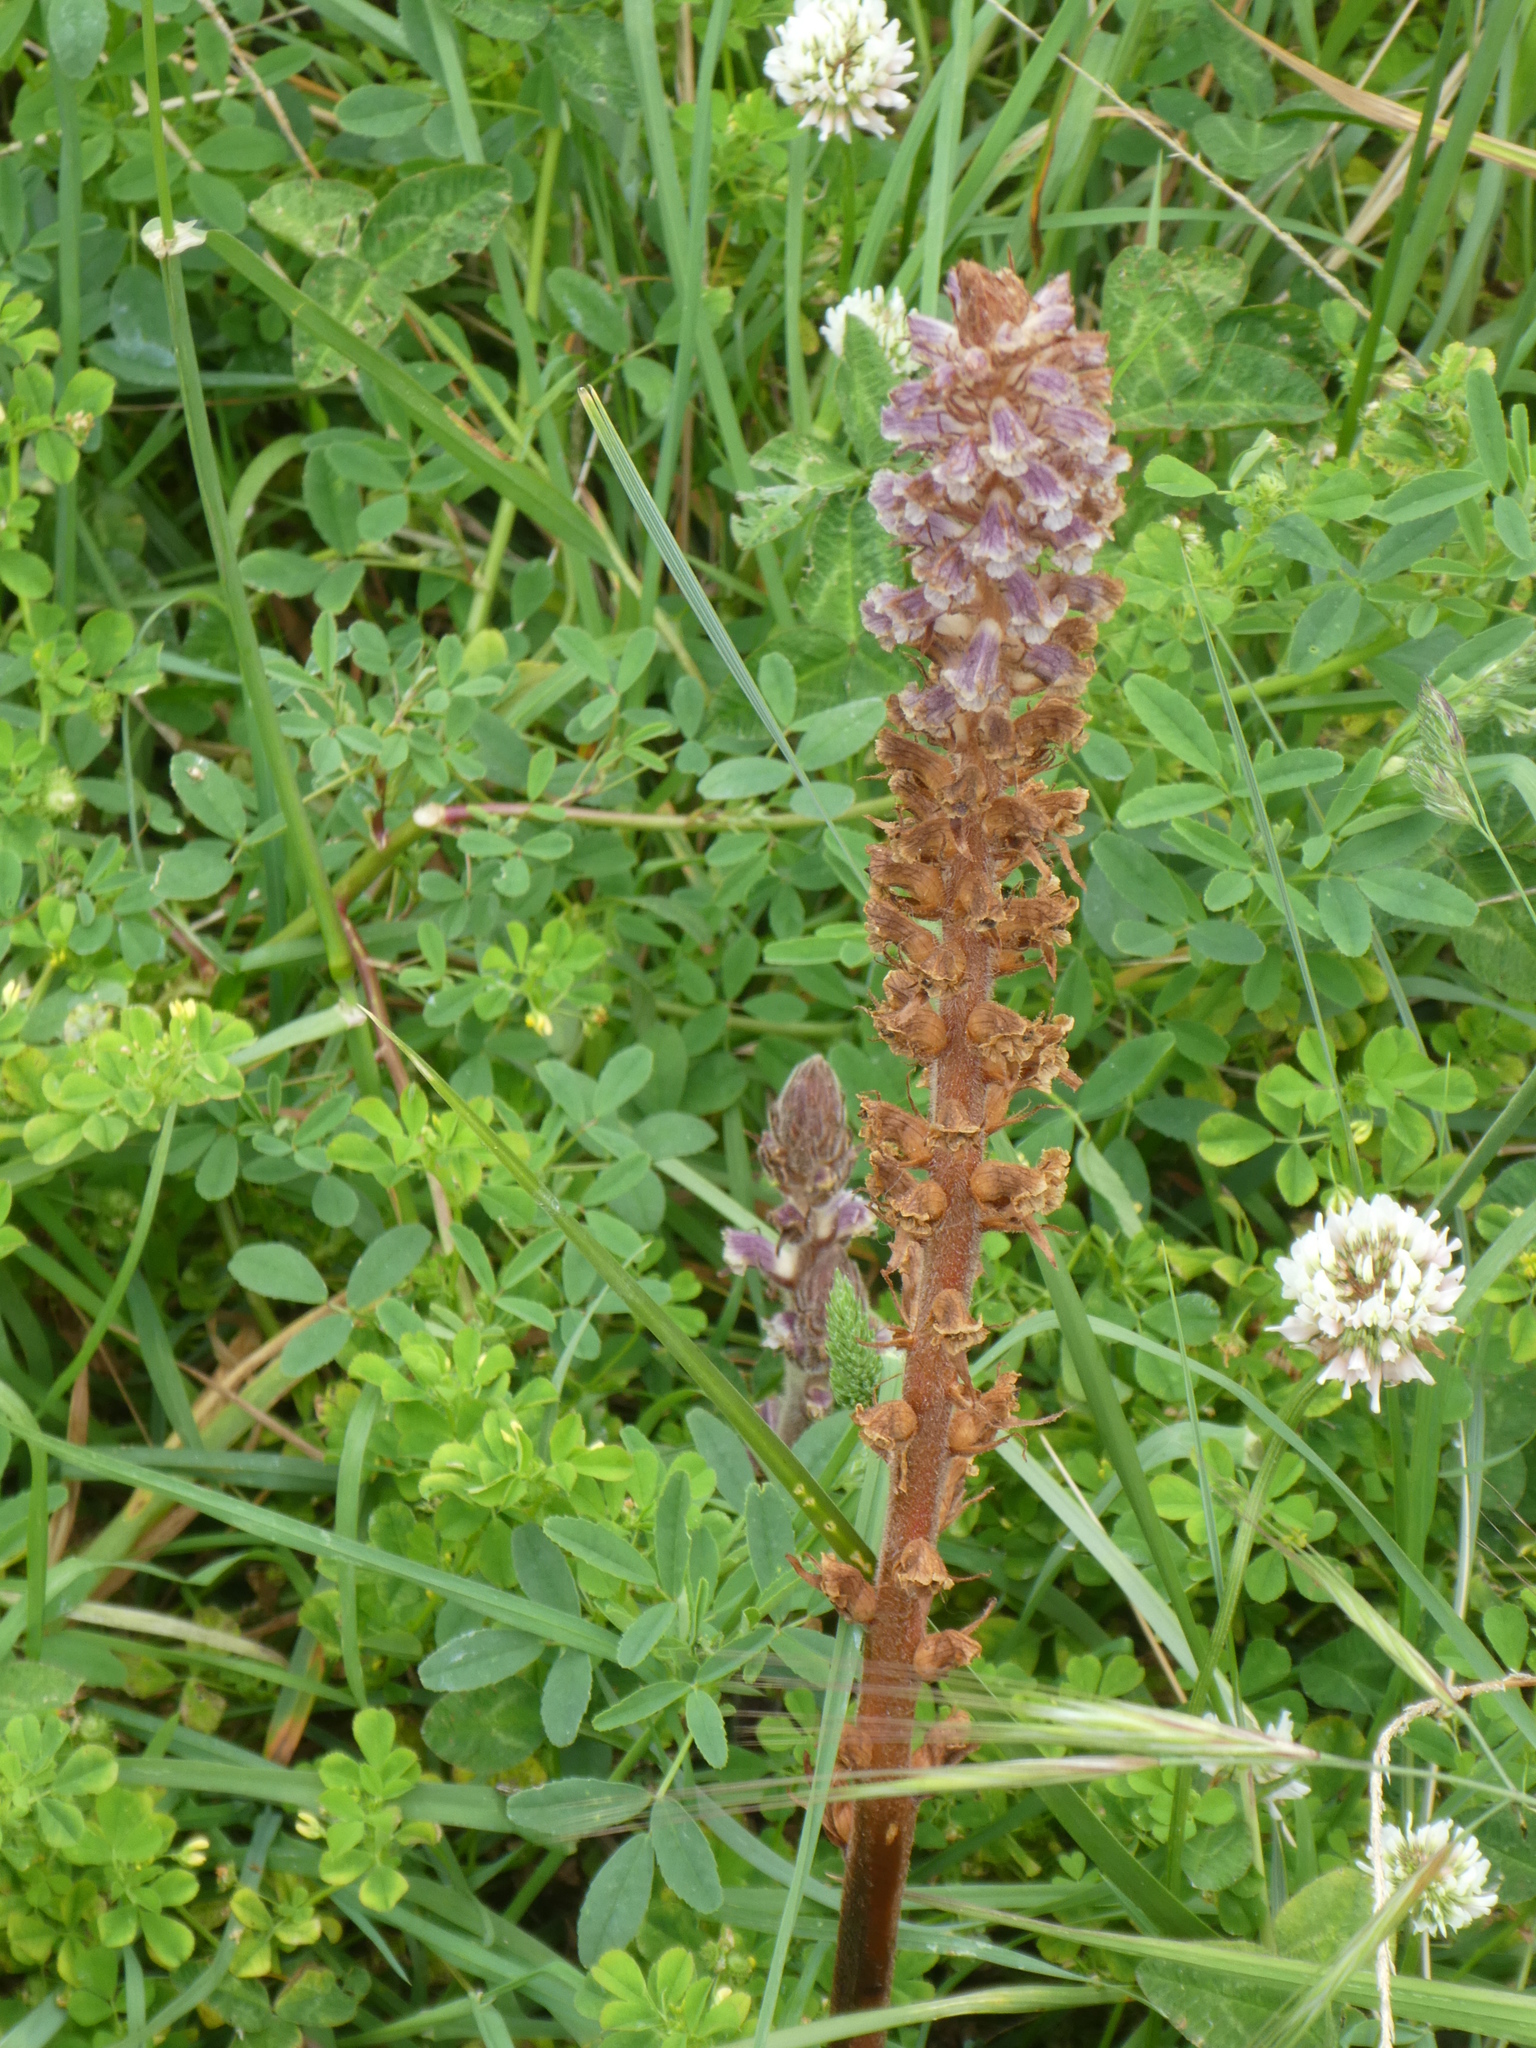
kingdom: Plantae
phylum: Tracheophyta
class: Magnoliopsida
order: Lamiales
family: Orobanchaceae
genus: Orobanche
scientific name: Orobanche minor
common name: Common broomrape
